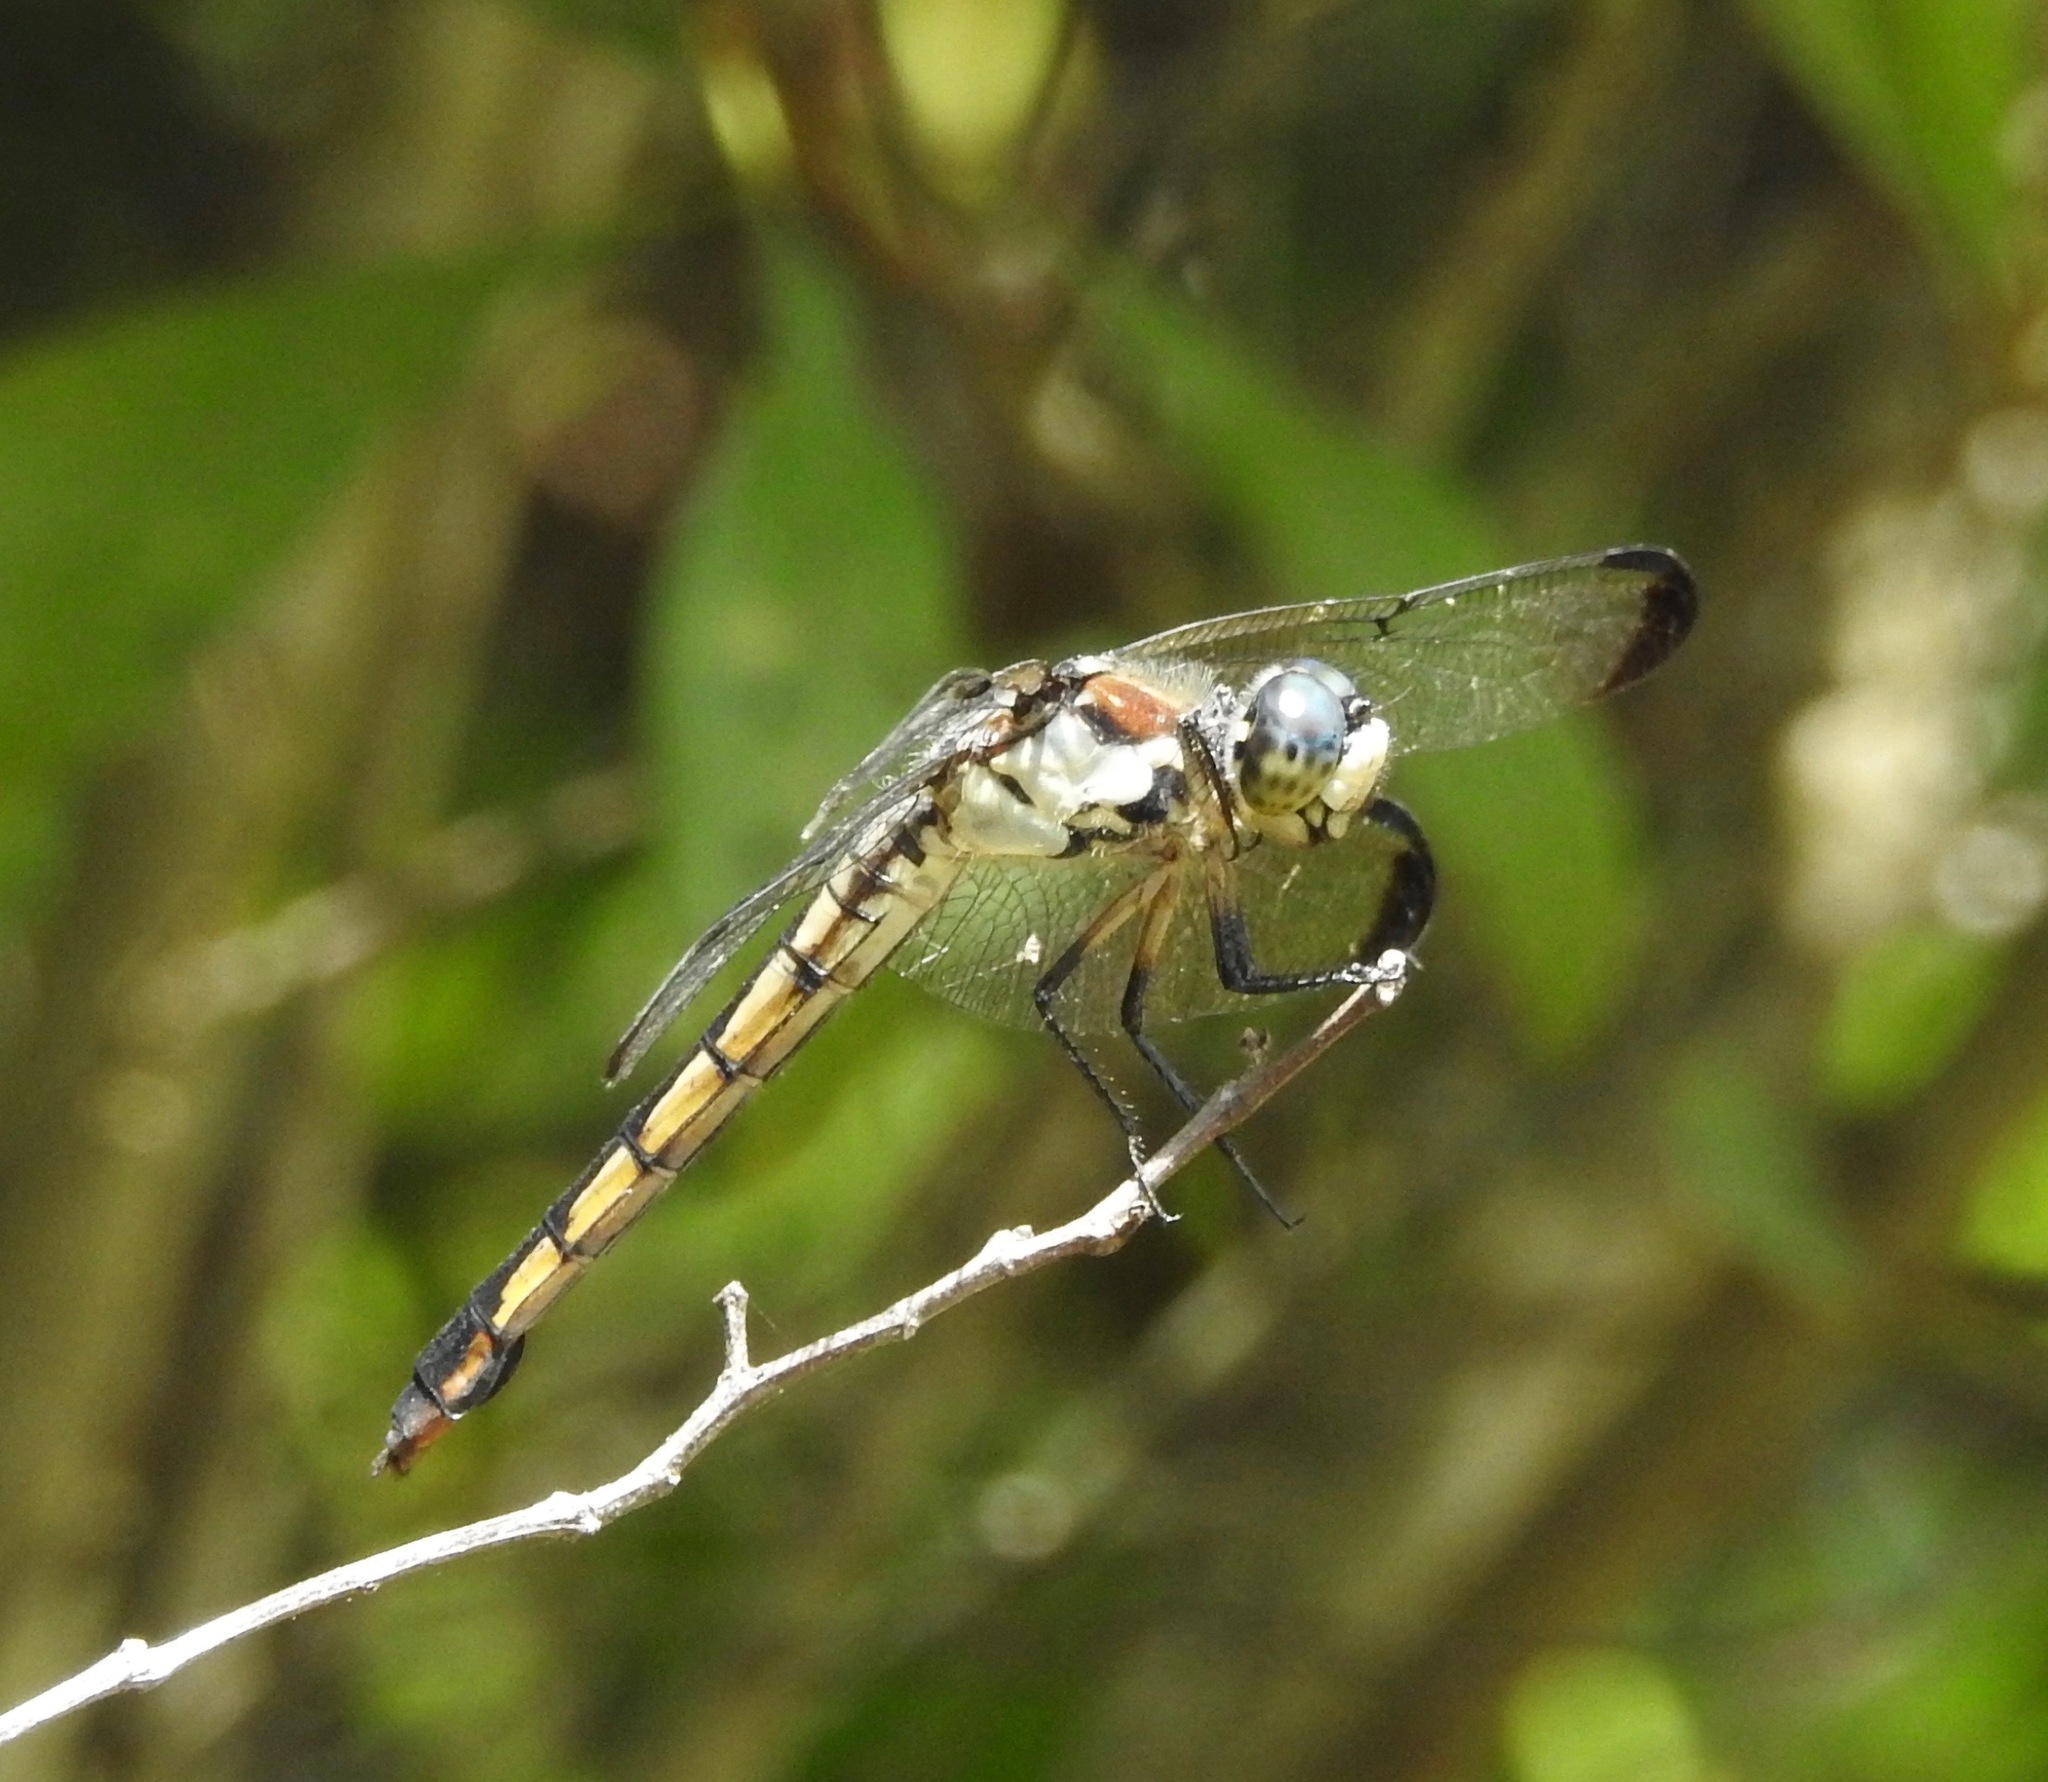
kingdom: Animalia
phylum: Arthropoda
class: Insecta
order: Odonata
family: Libellulidae
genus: Libellula
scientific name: Libellula vibrans
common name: Great blue skimmer
